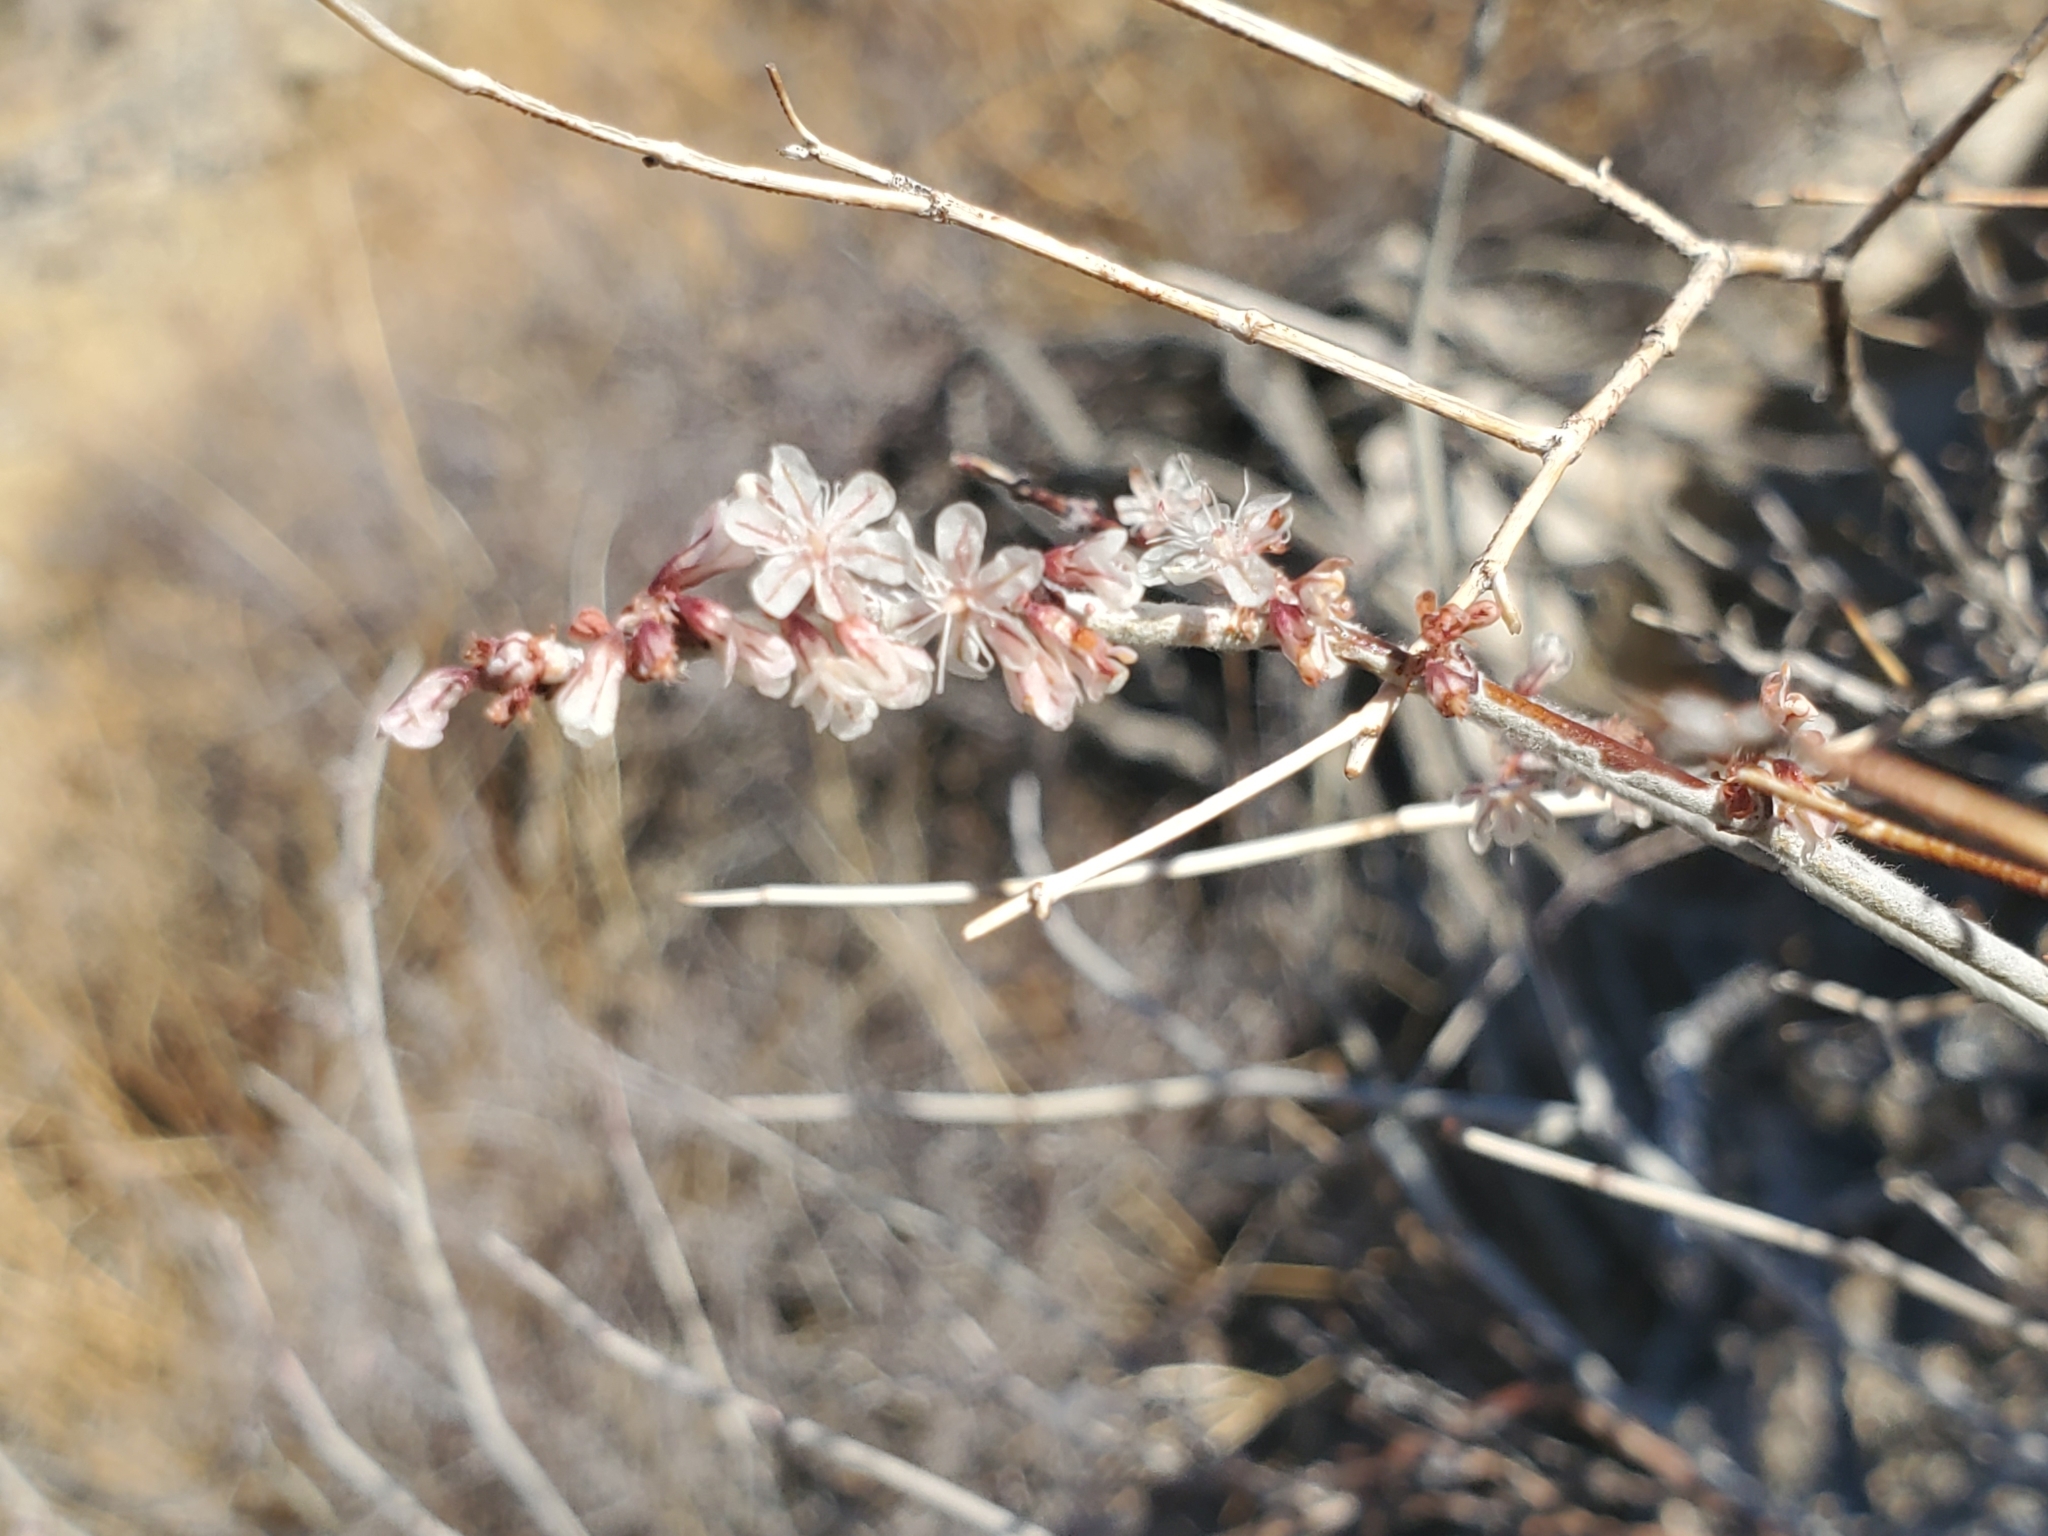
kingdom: Plantae
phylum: Tracheophyta
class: Magnoliopsida
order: Caryophyllales
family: Polygonaceae
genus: Eriogonum
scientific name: Eriogonum wrightii
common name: Bastard-sage
